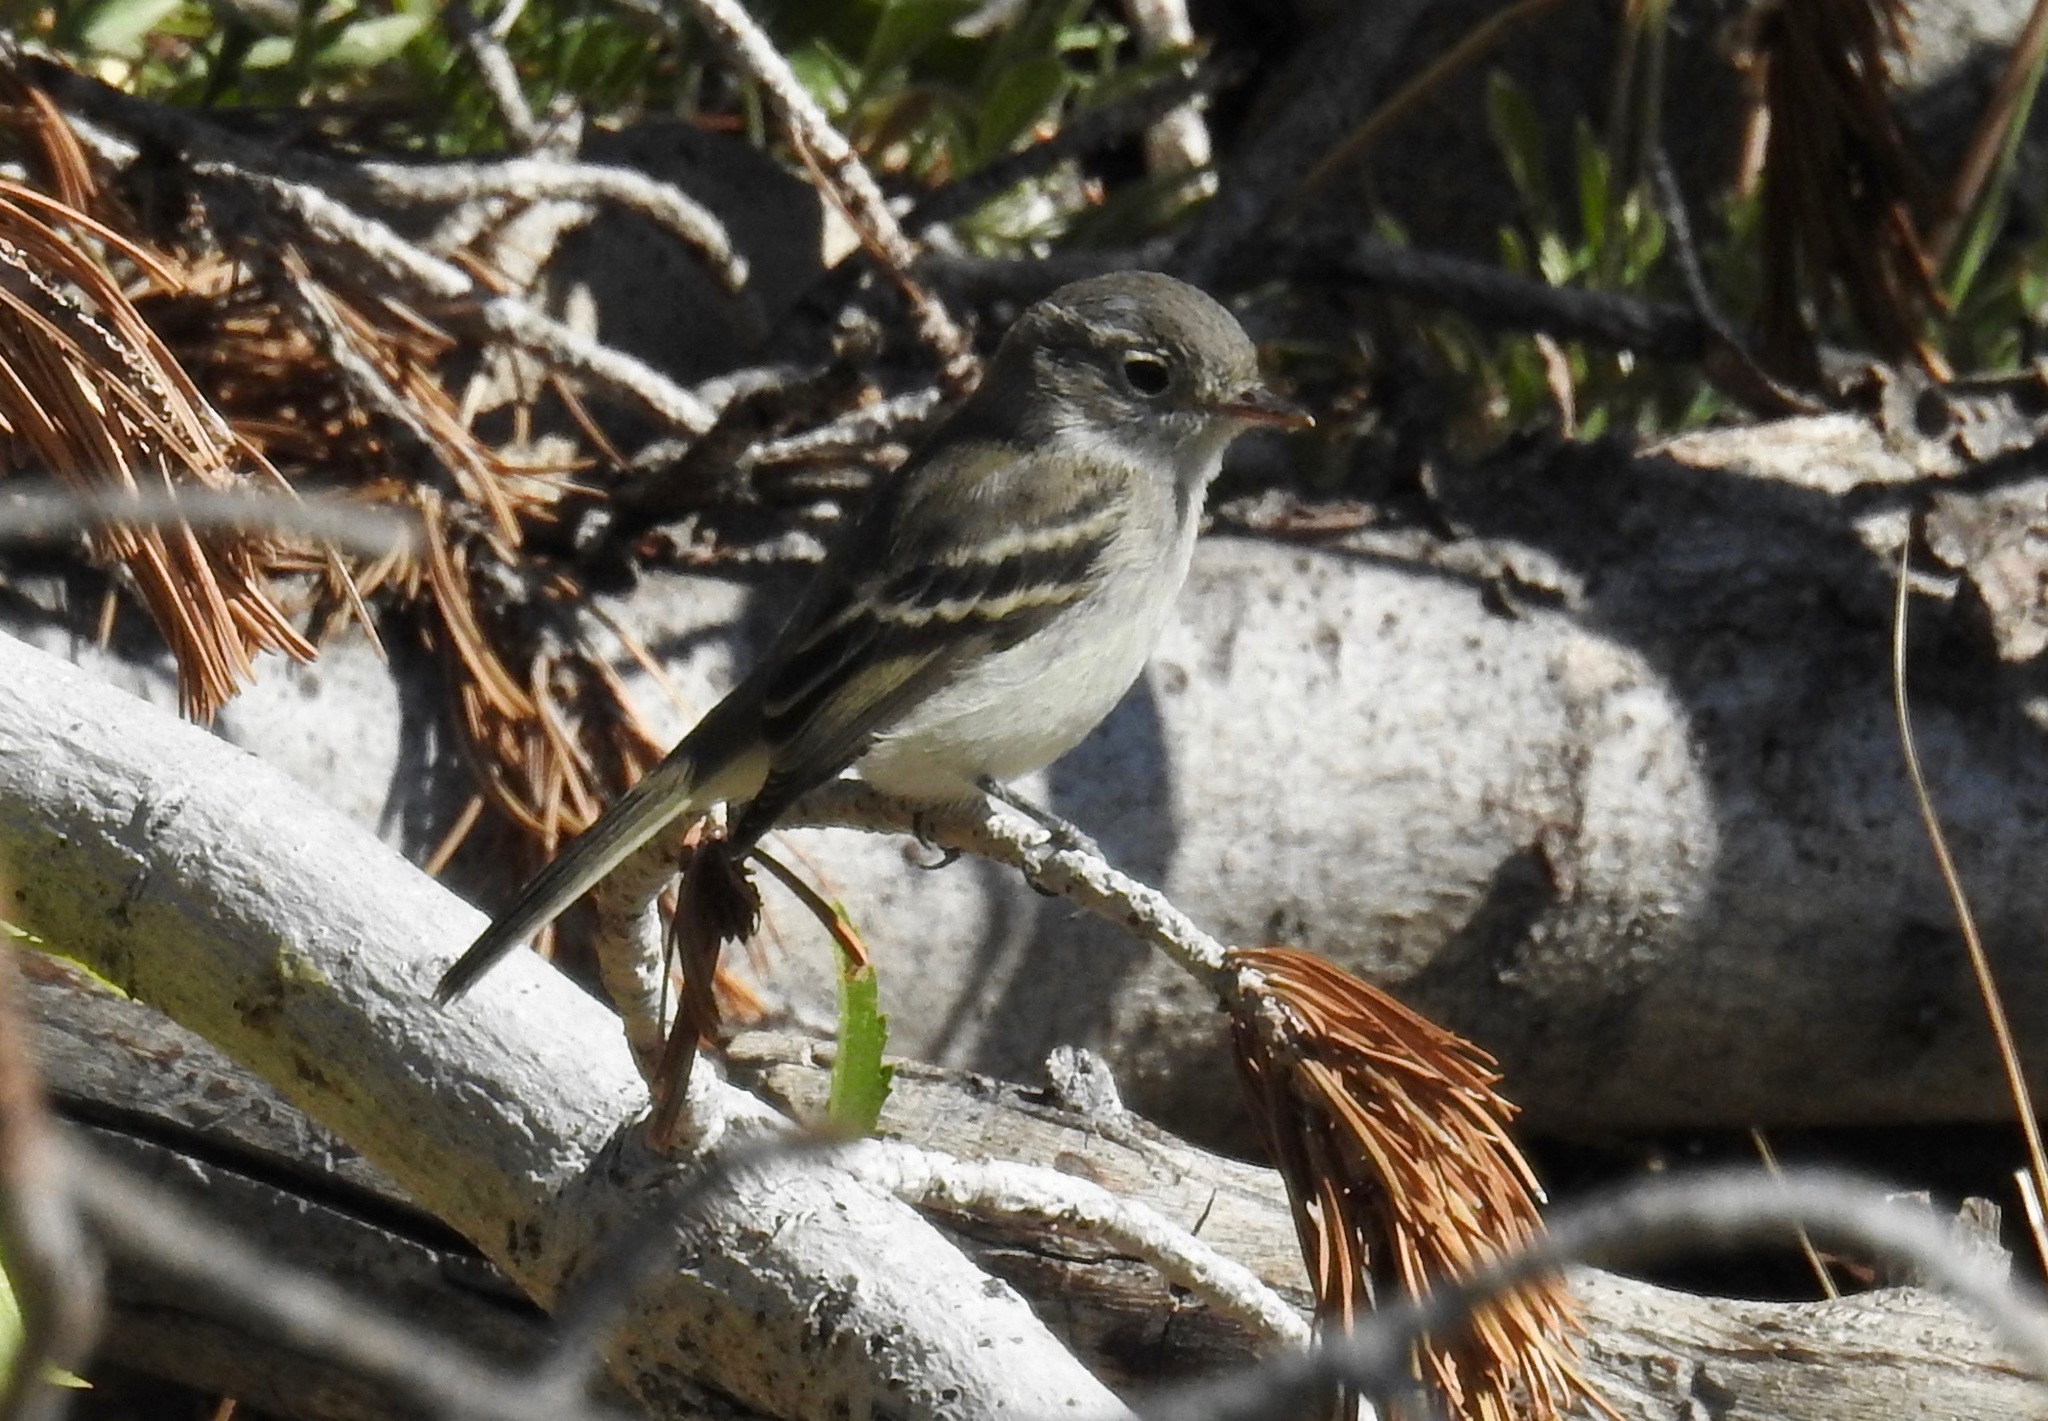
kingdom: Animalia
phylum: Chordata
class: Aves
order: Passeriformes
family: Tyrannidae
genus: Empidonax
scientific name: Empidonax oberholseri
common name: Dusky flycatcher
